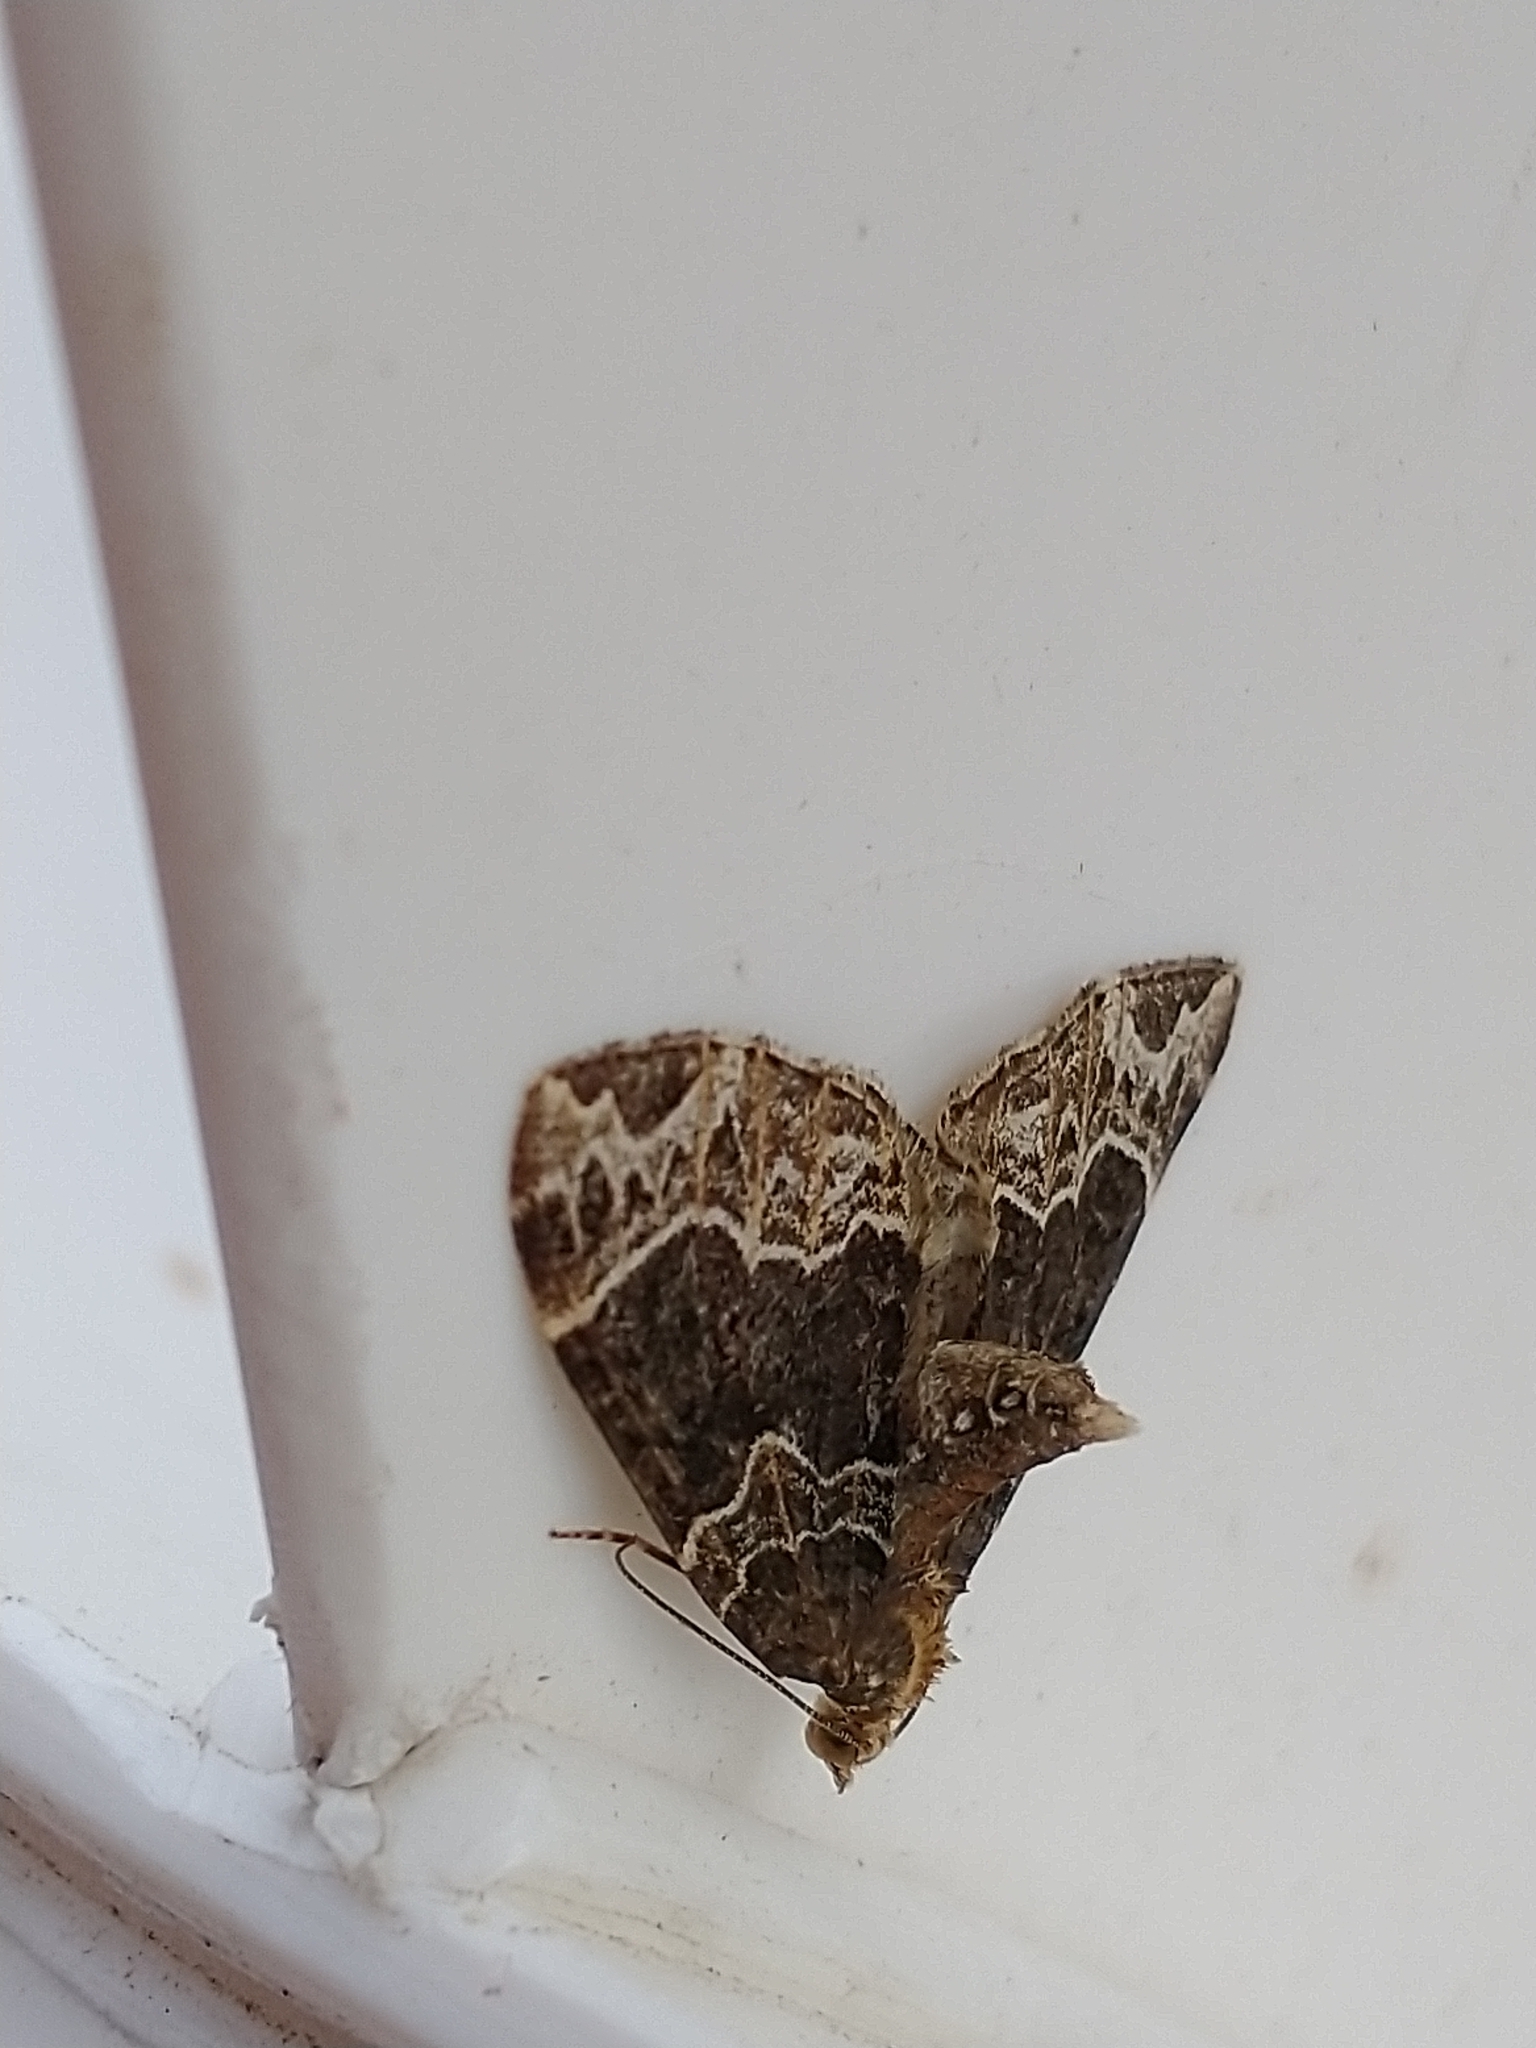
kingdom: Animalia
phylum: Arthropoda
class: Insecta
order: Lepidoptera
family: Geometridae
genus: Ecliptopera
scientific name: Ecliptopera silaceata
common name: Small phoenix
